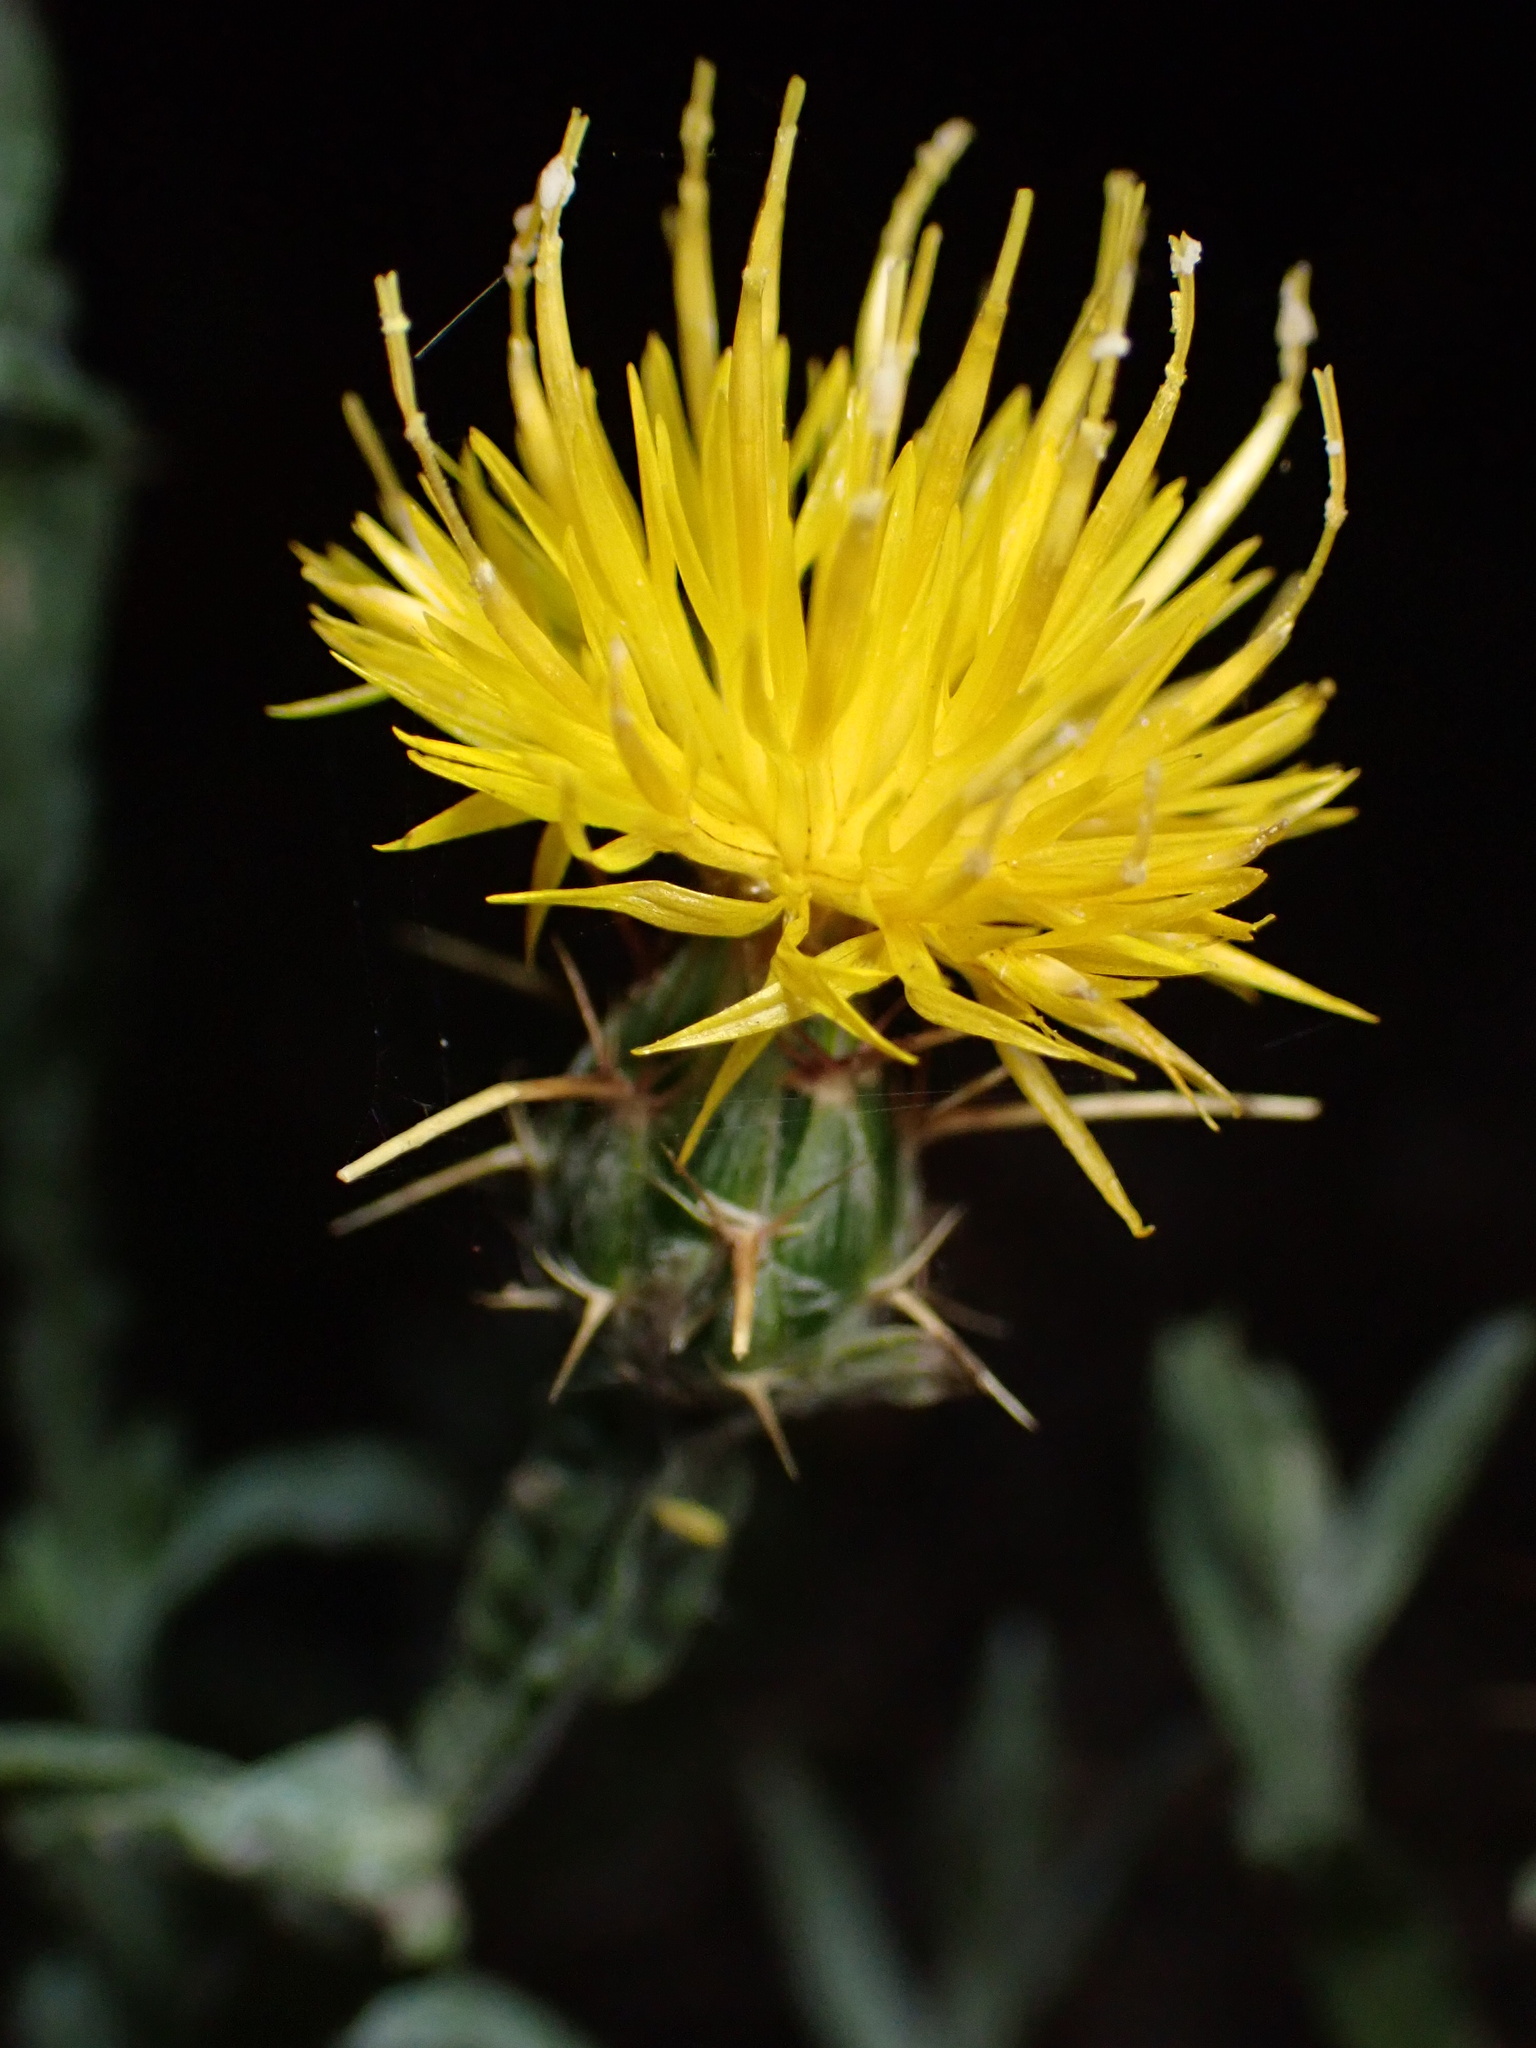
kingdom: Plantae
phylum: Tracheophyta
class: Magnoliopsida
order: Asterales
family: Asteraceae
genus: Centaurea
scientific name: Centaurea solstitialis
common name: Yellow star-thistle
